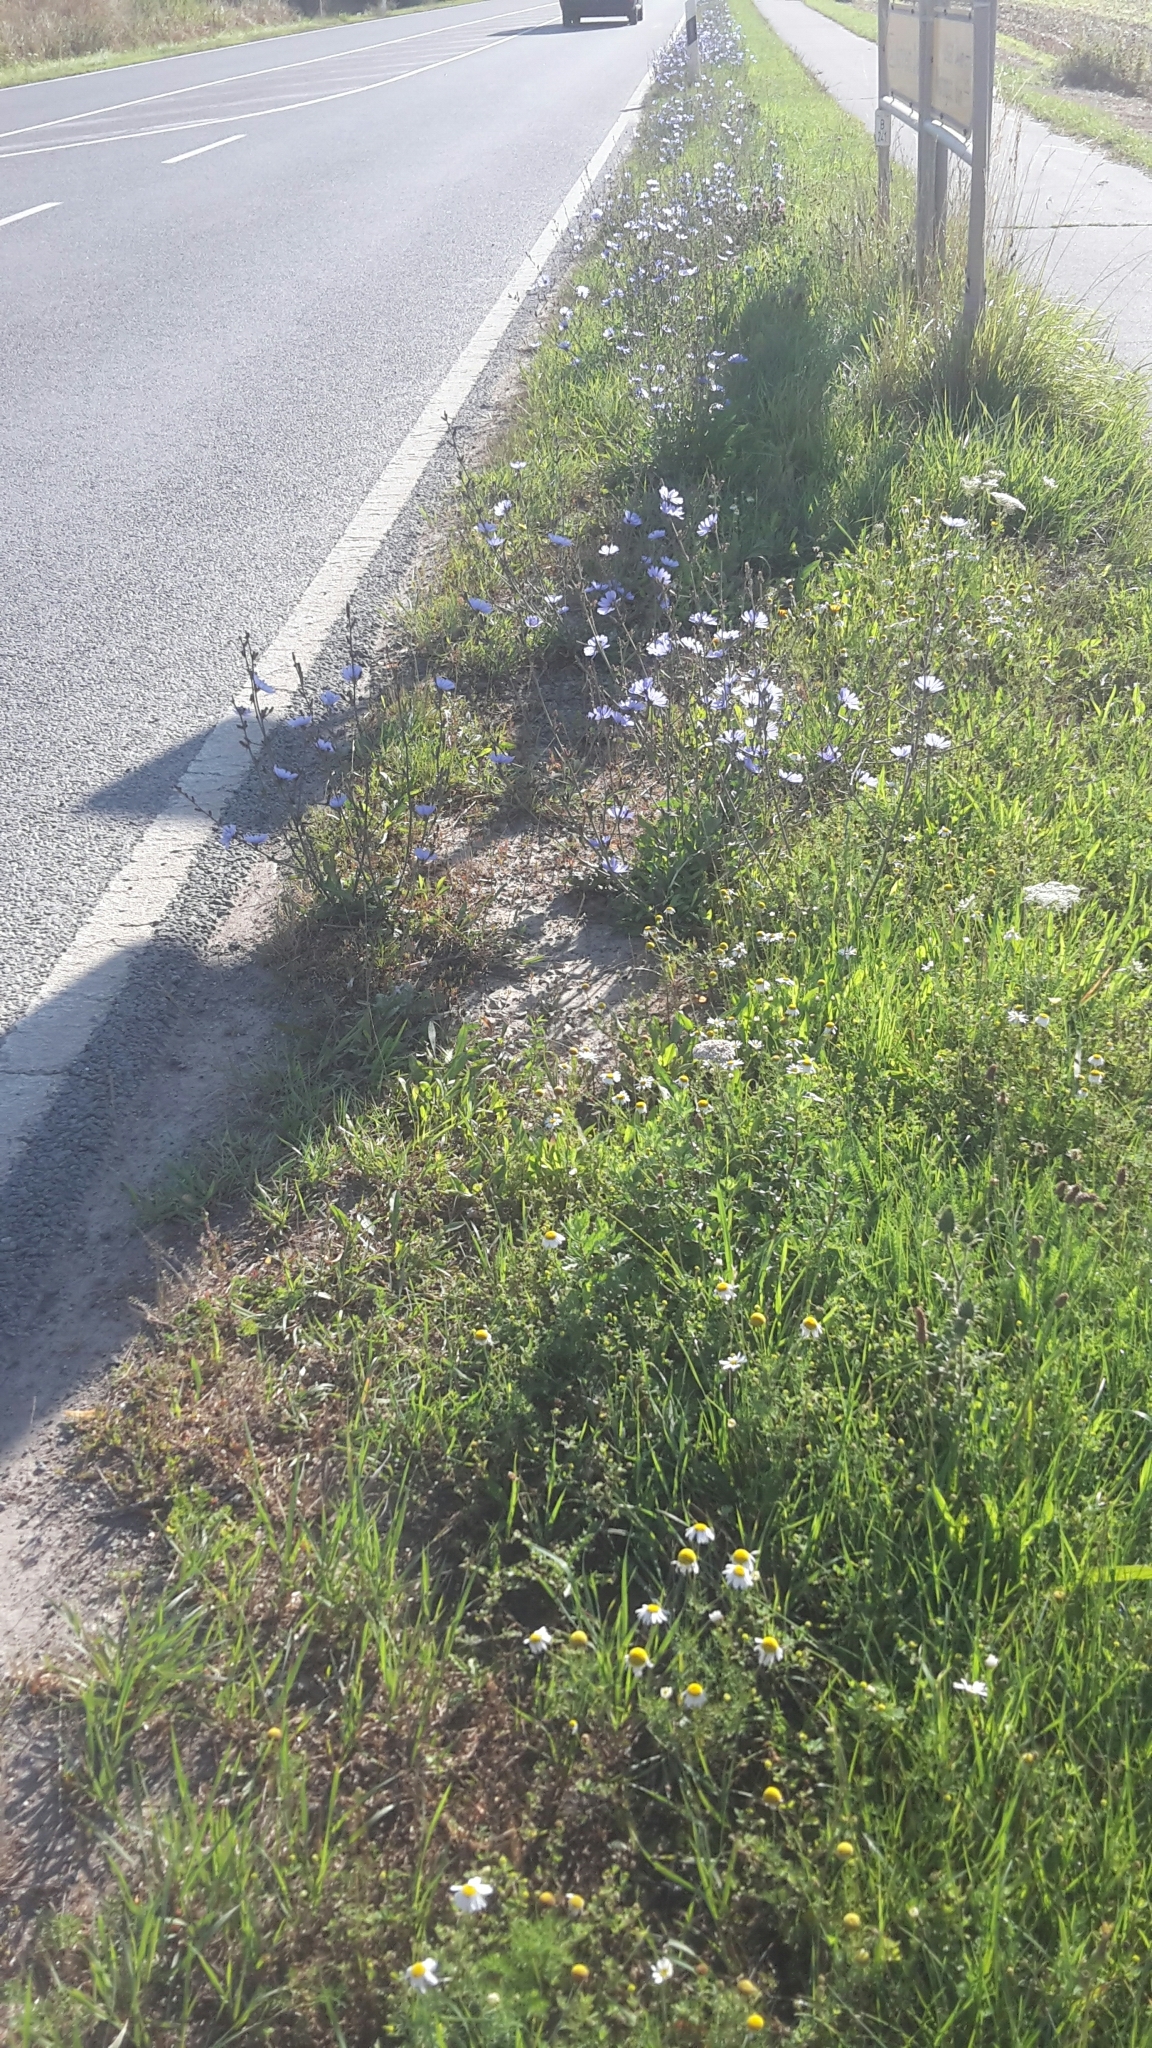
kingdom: Plantae
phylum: Tracheophyta
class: Magnoliopsida
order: Asterales
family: Asteraceae
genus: Cichorium
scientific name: Cichorium intybus
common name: Chicory
